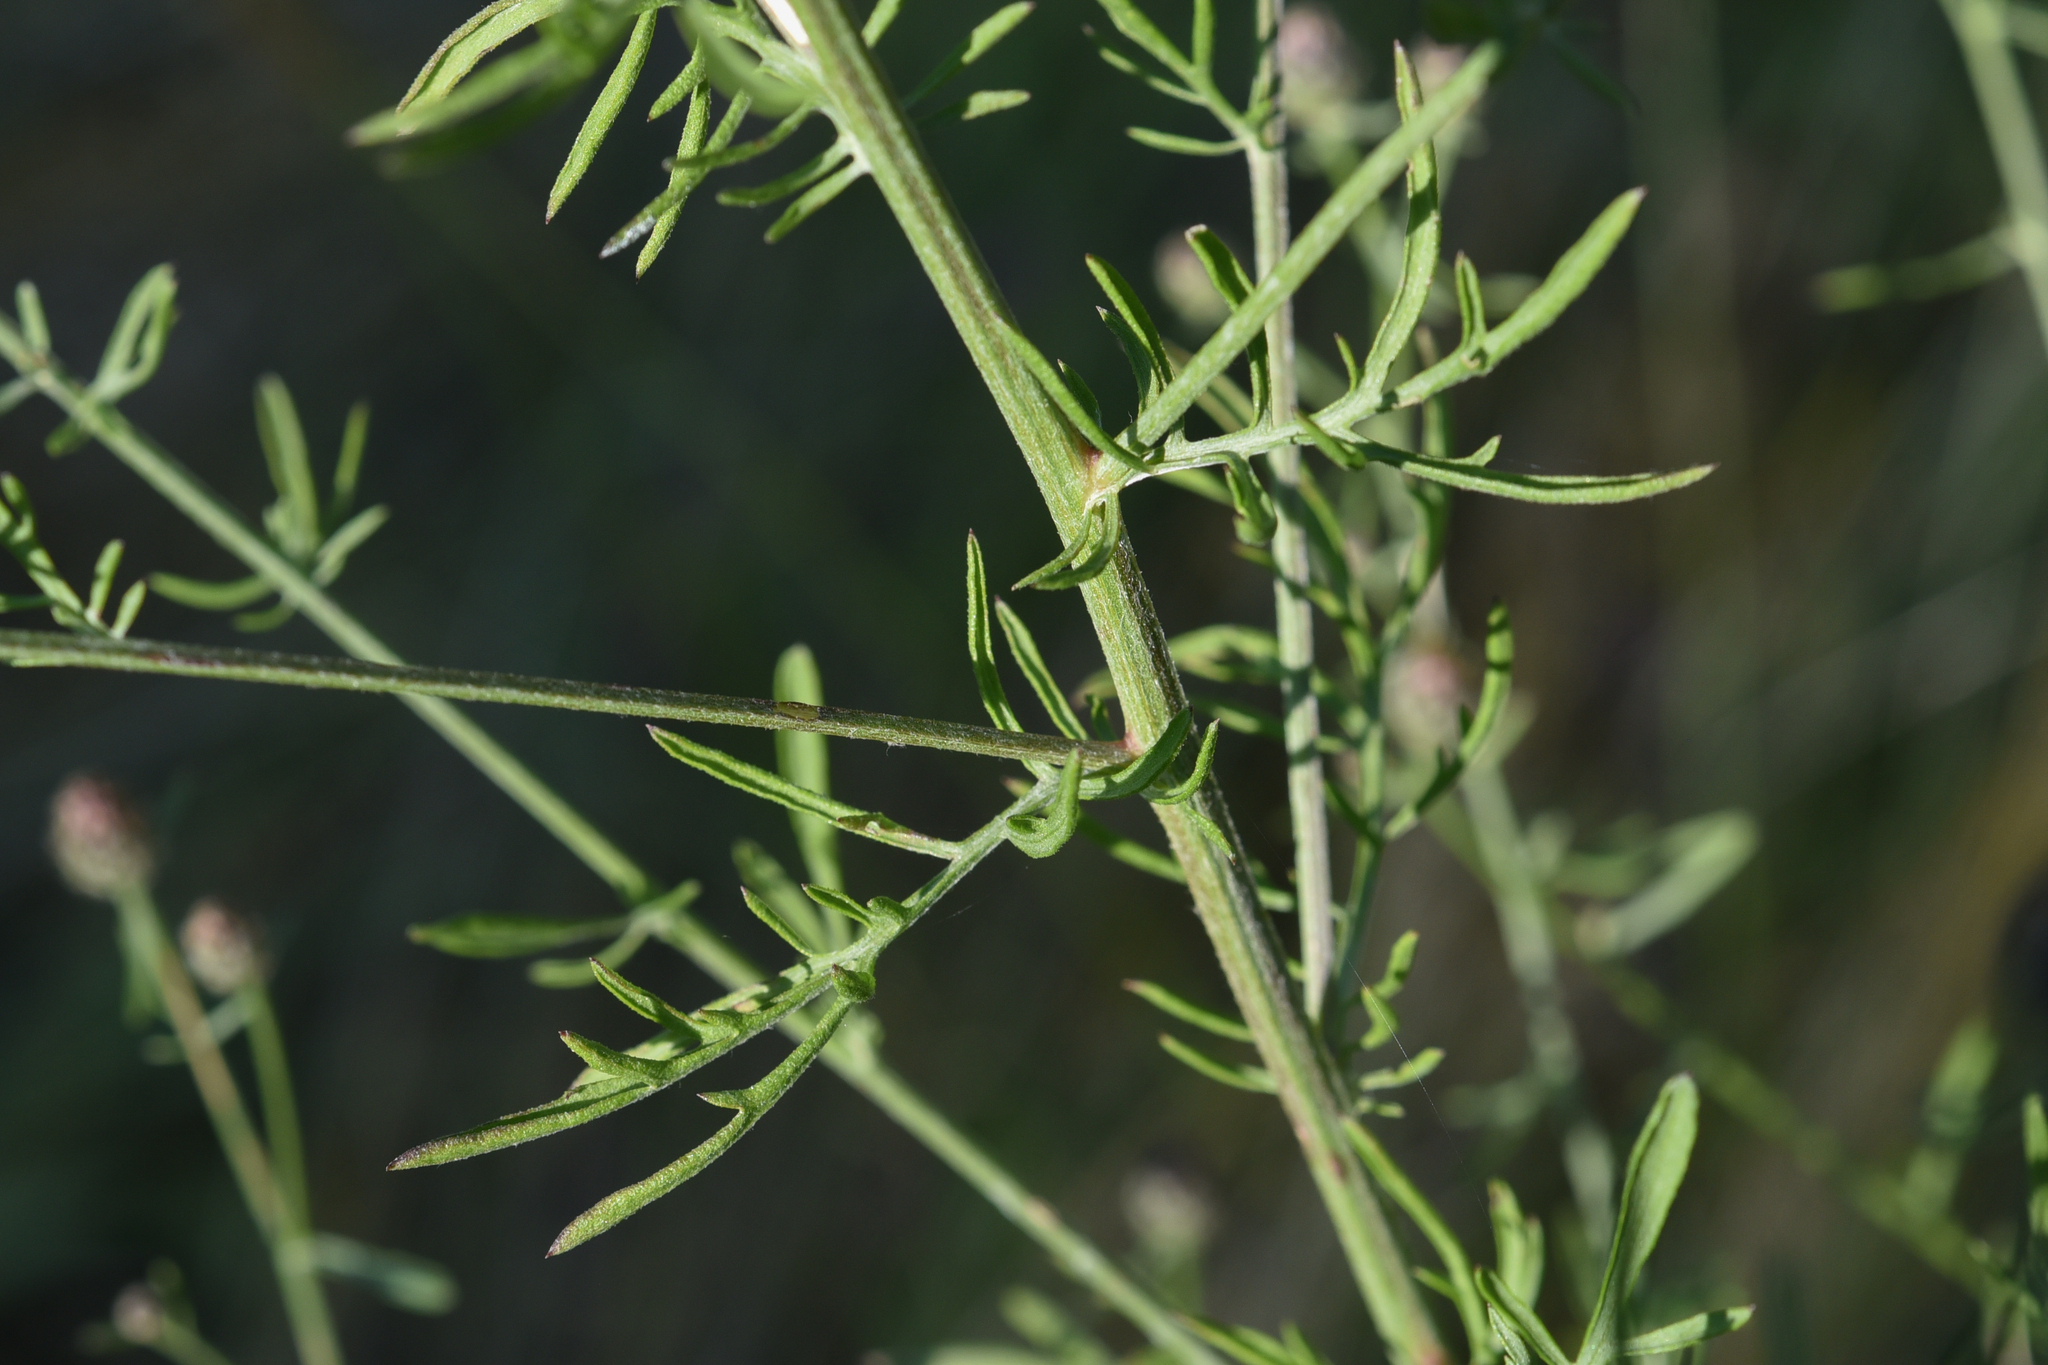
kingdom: Plantae
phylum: Tracheophyta
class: Magnoliopsida
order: Asterales
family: Asteraceae
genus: Centaurea
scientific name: Centaurea stoebe
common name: Spotted knapweed
